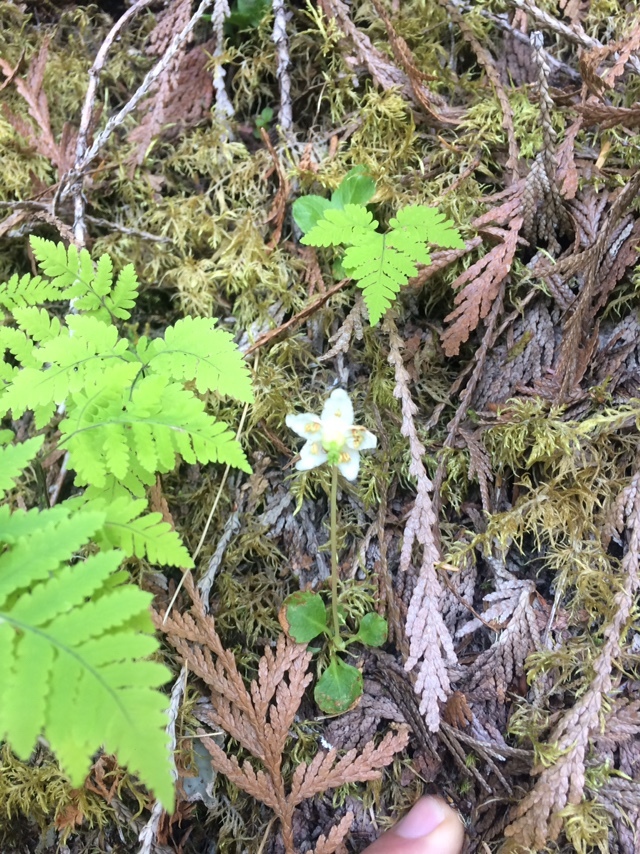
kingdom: Plantae
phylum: Tracheophyta
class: Magnoliopsida
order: Ericales
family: Ericaceae
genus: Moneses
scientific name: Moneses uniflora
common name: One-flowered wintergreen
